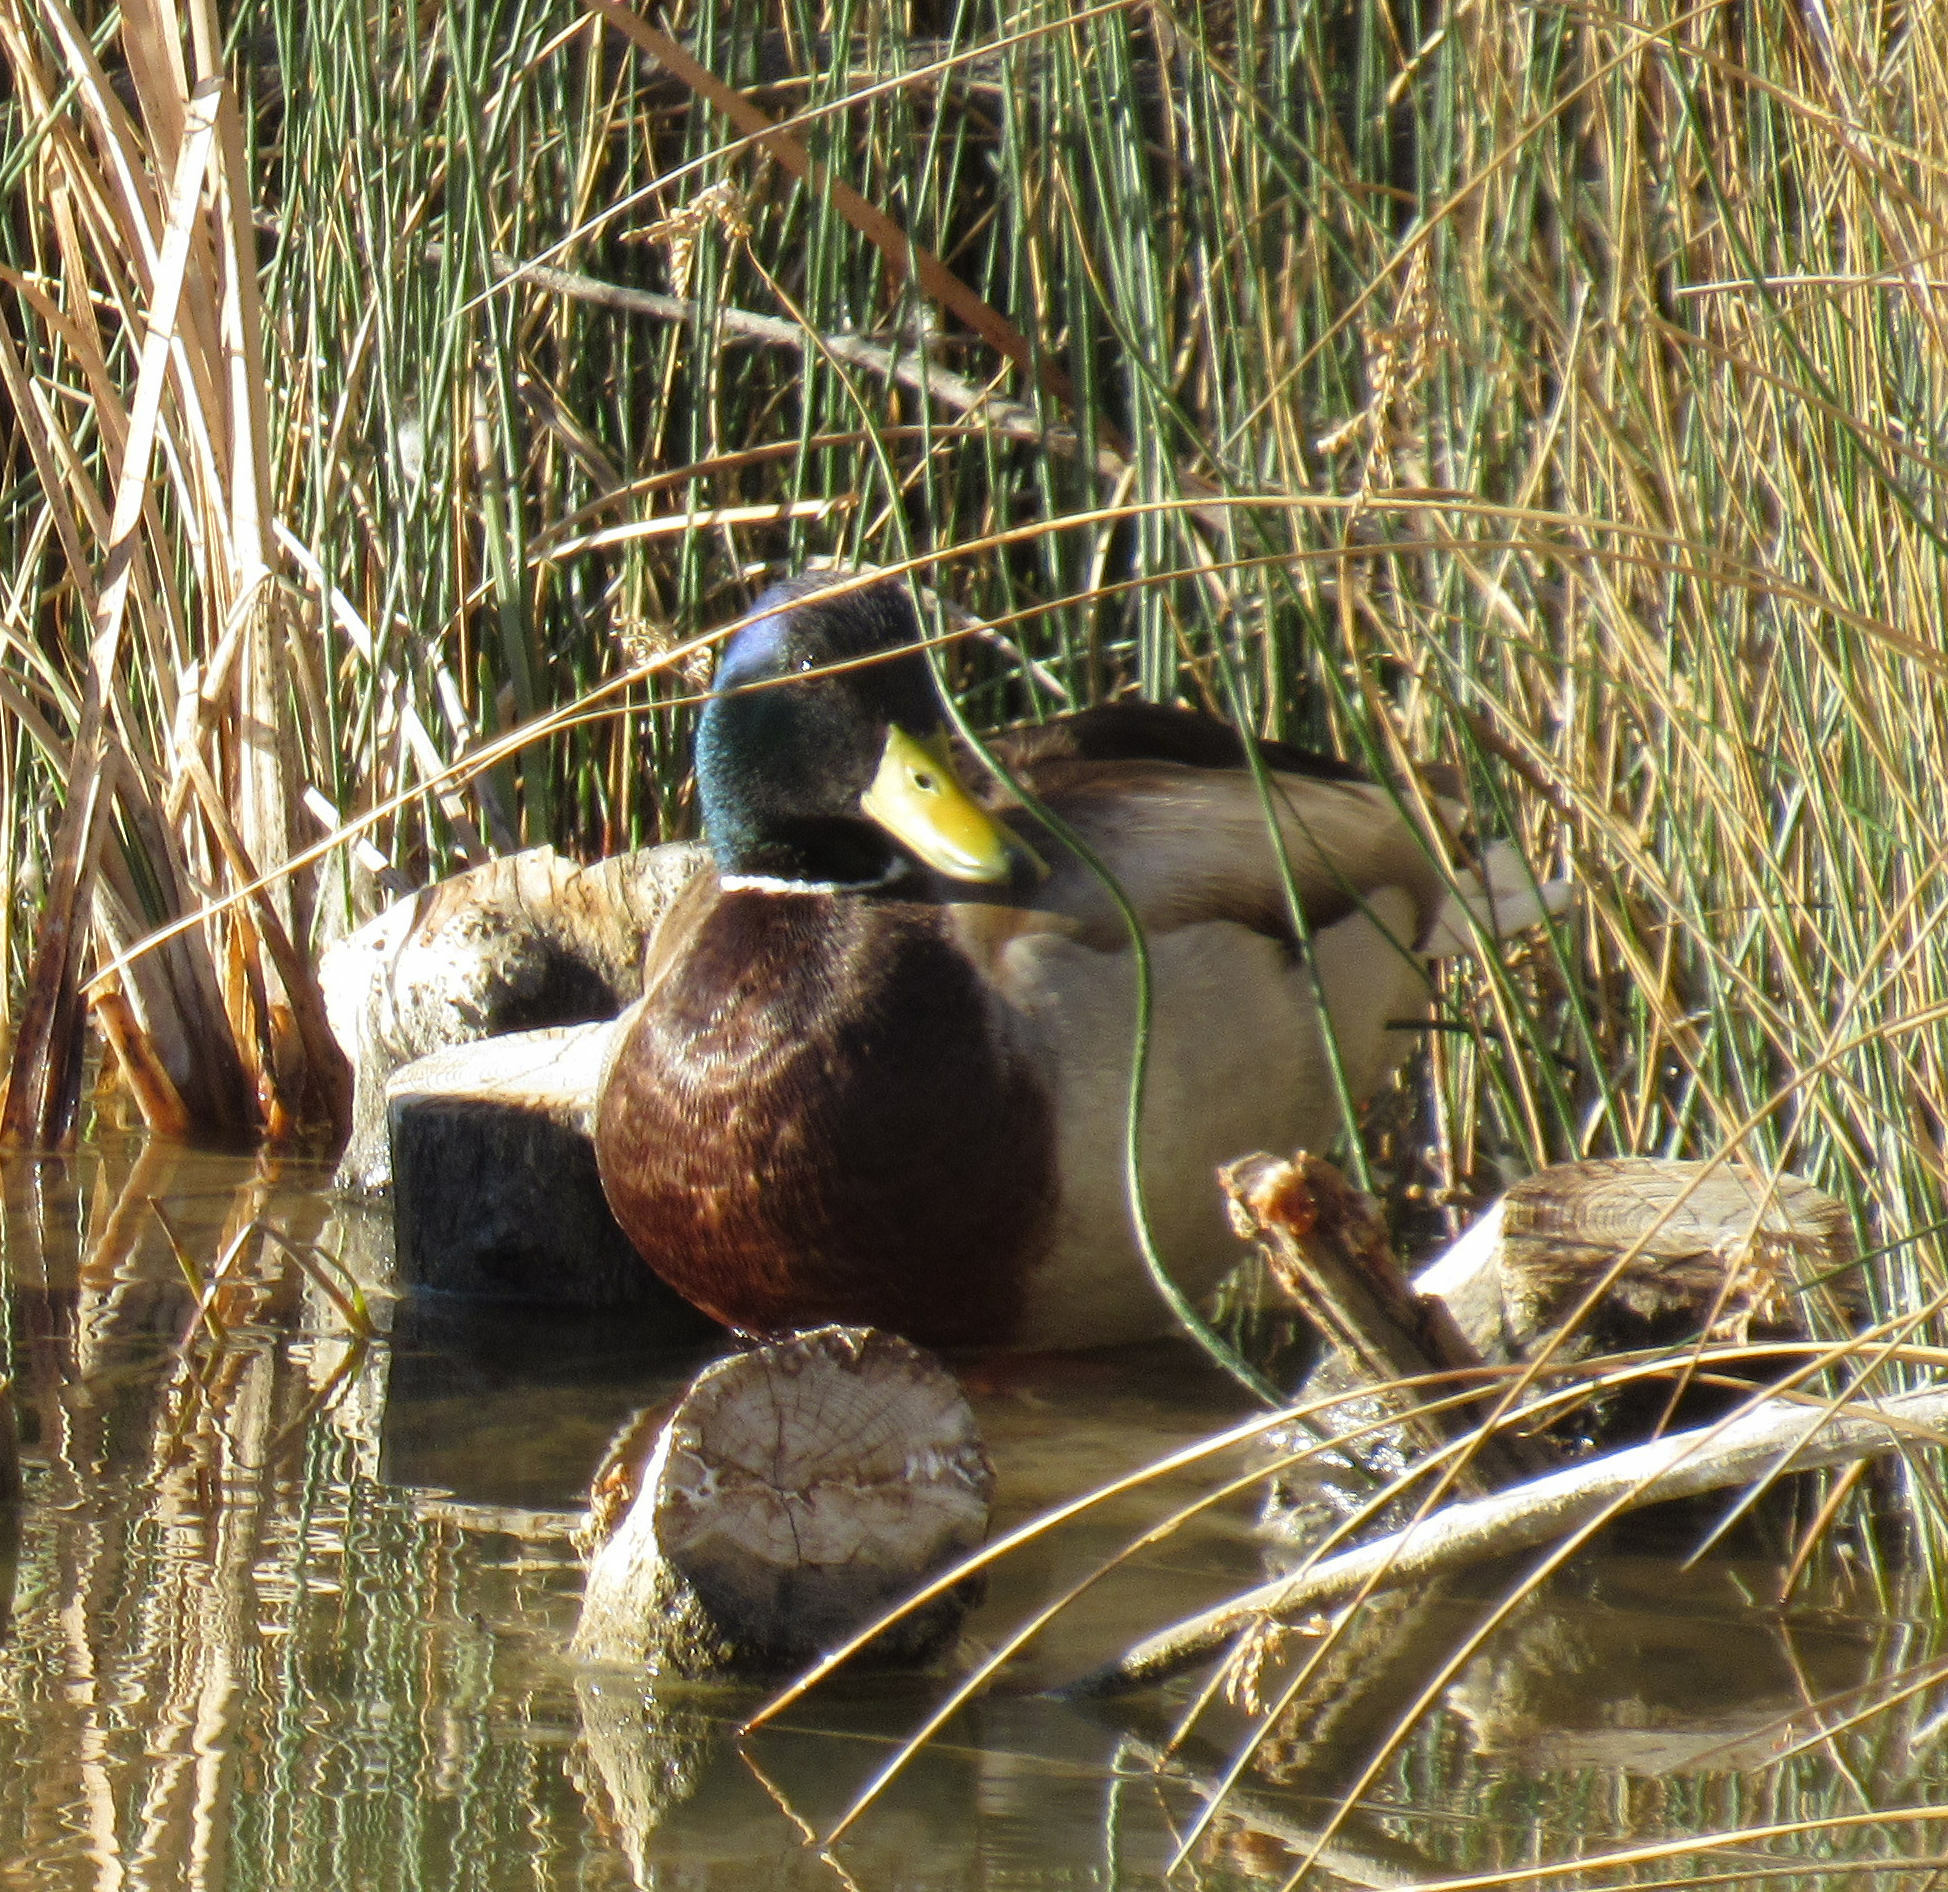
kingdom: Animalia
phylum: Chordata
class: Aves
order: Anseriformes
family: Anatidae
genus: Anas
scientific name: Anas platyrhynchos
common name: Mallard
